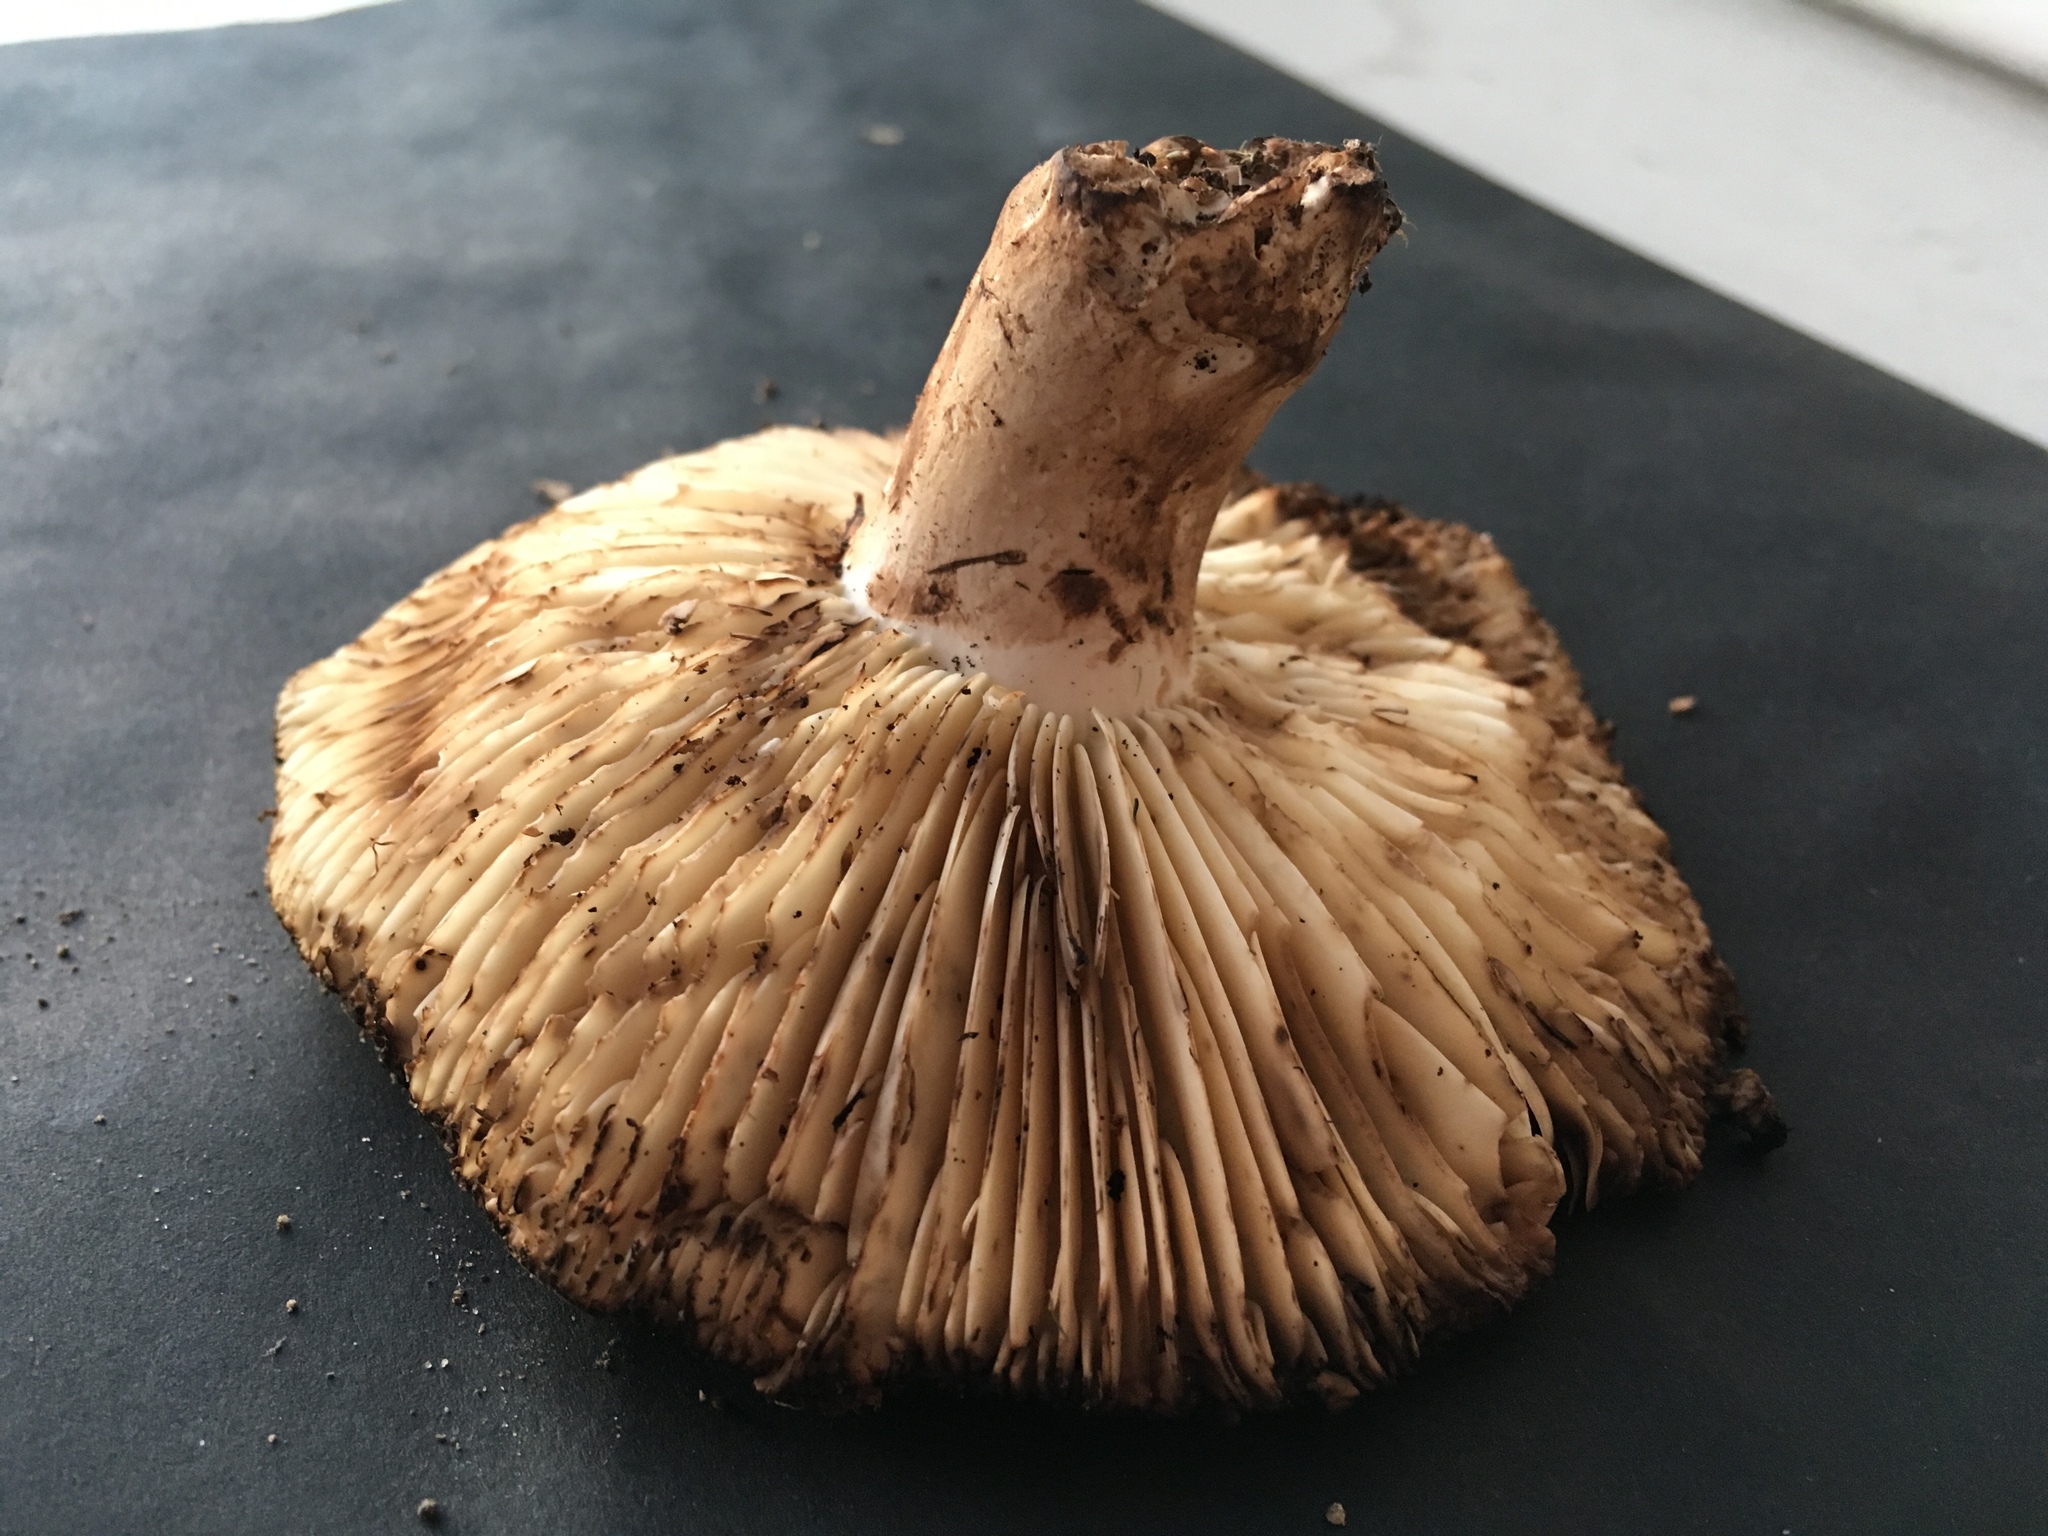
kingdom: Fungi
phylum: Basidiomycota
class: Agaricomycetes
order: Russulales
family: Russulaceae
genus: Russula
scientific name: Russula dissimulans
